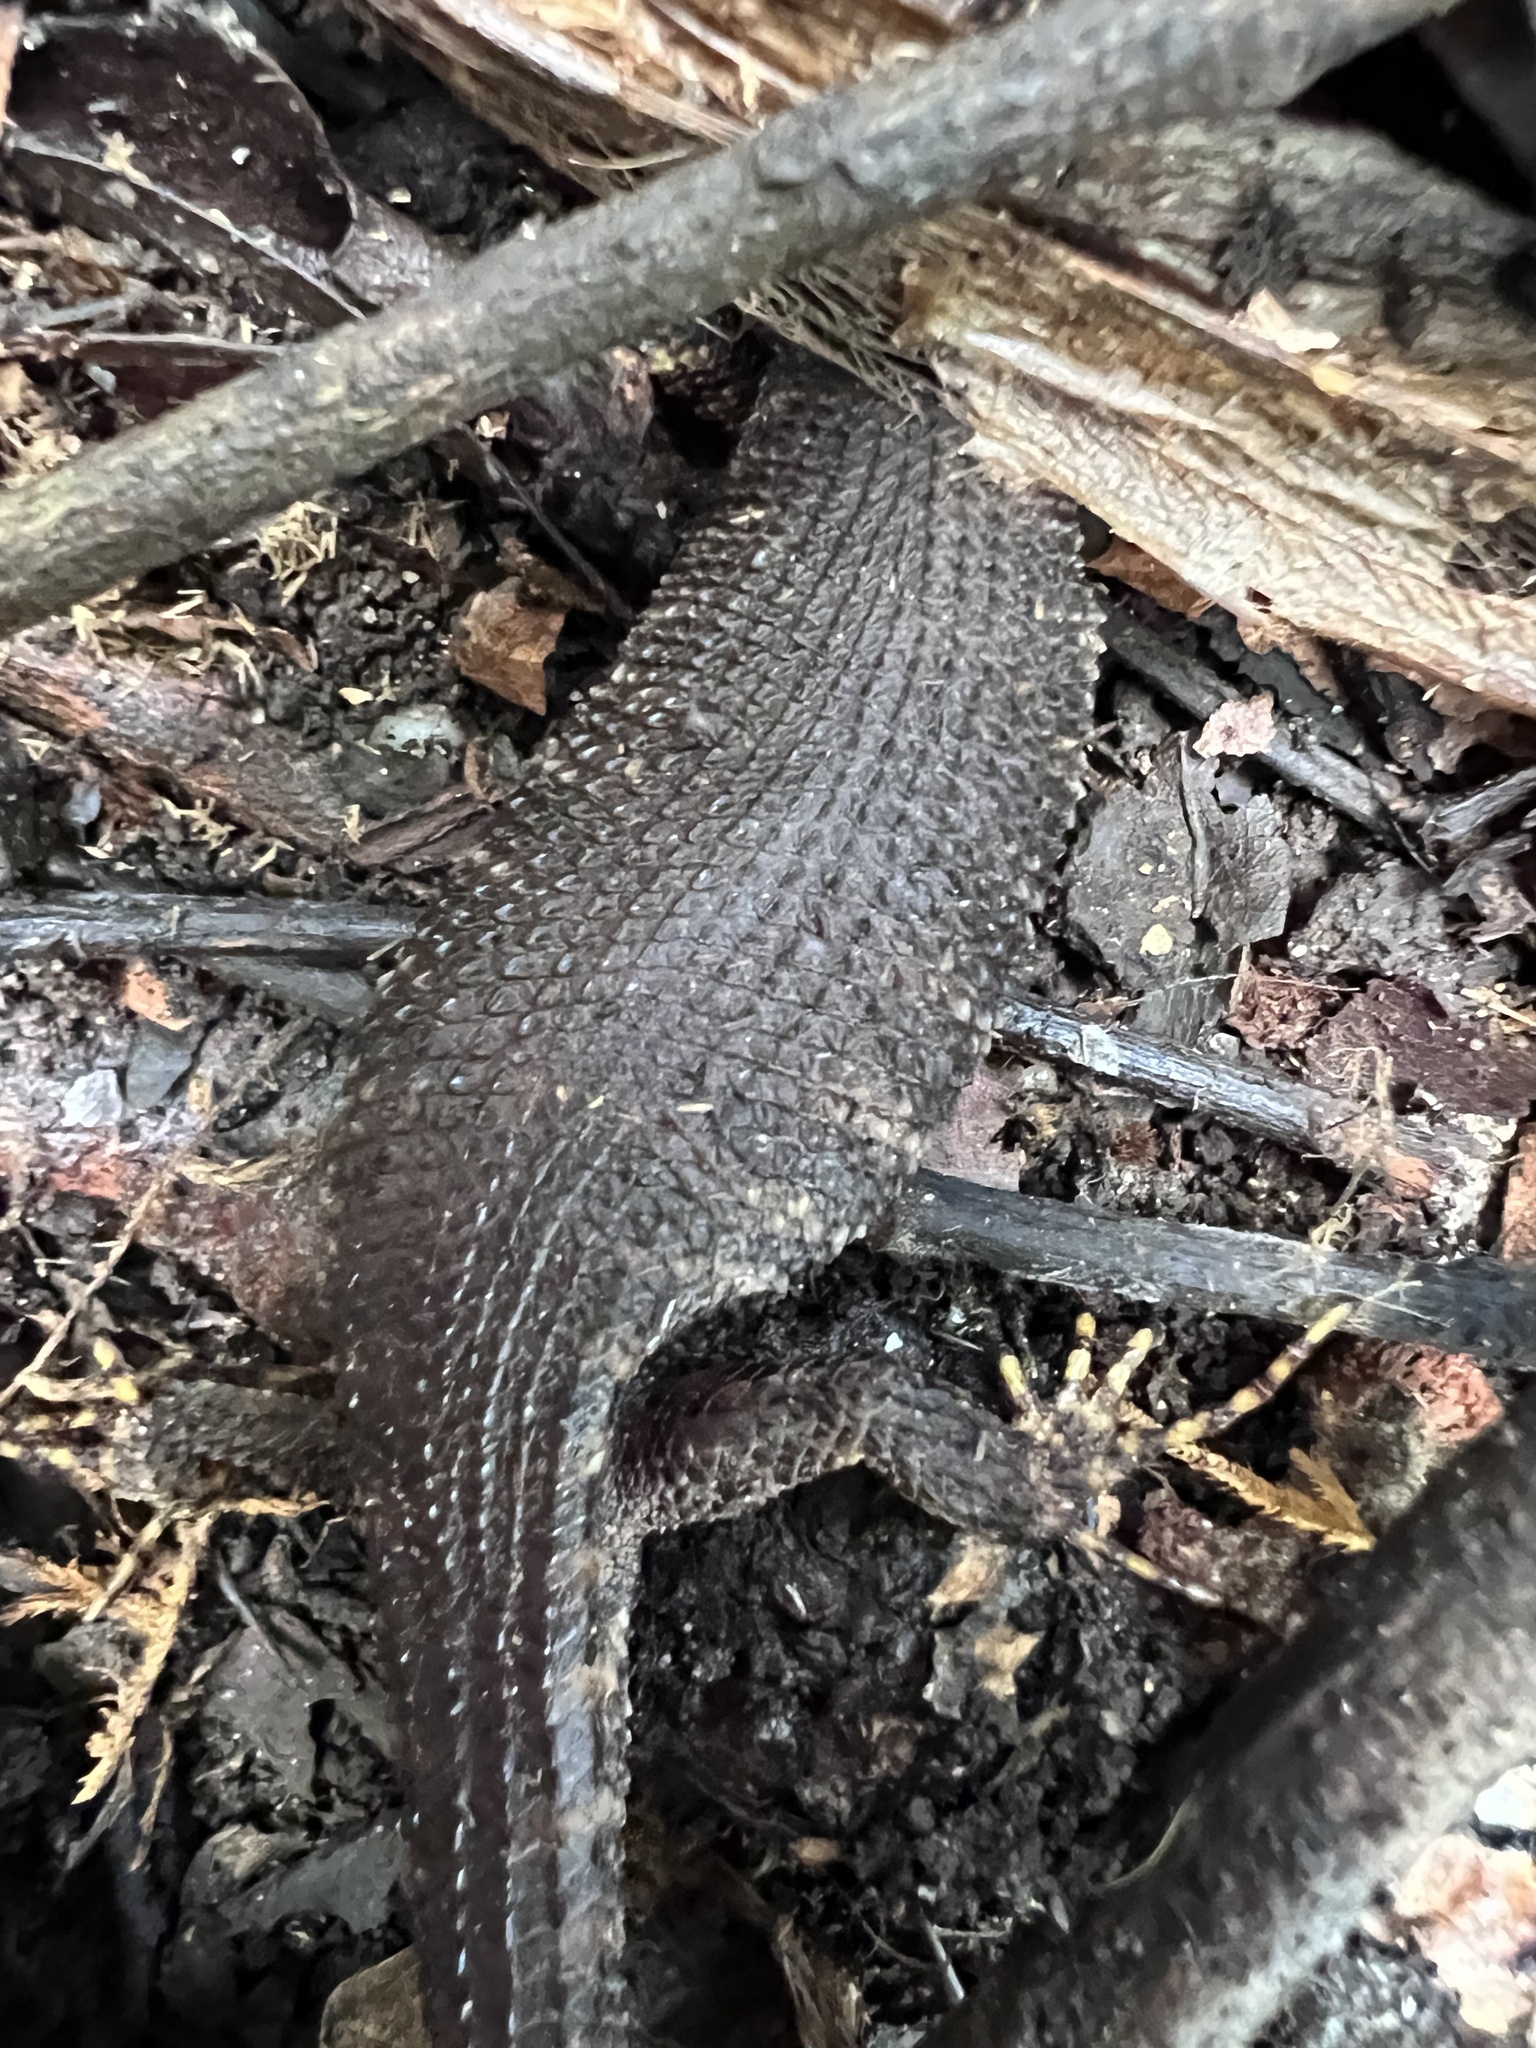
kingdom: Animalia
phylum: Chordata
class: Squamata
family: Scincidae
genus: Gnypetoscincus
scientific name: Gnypetoscincus queenslandiae
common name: Prickly forest skink
